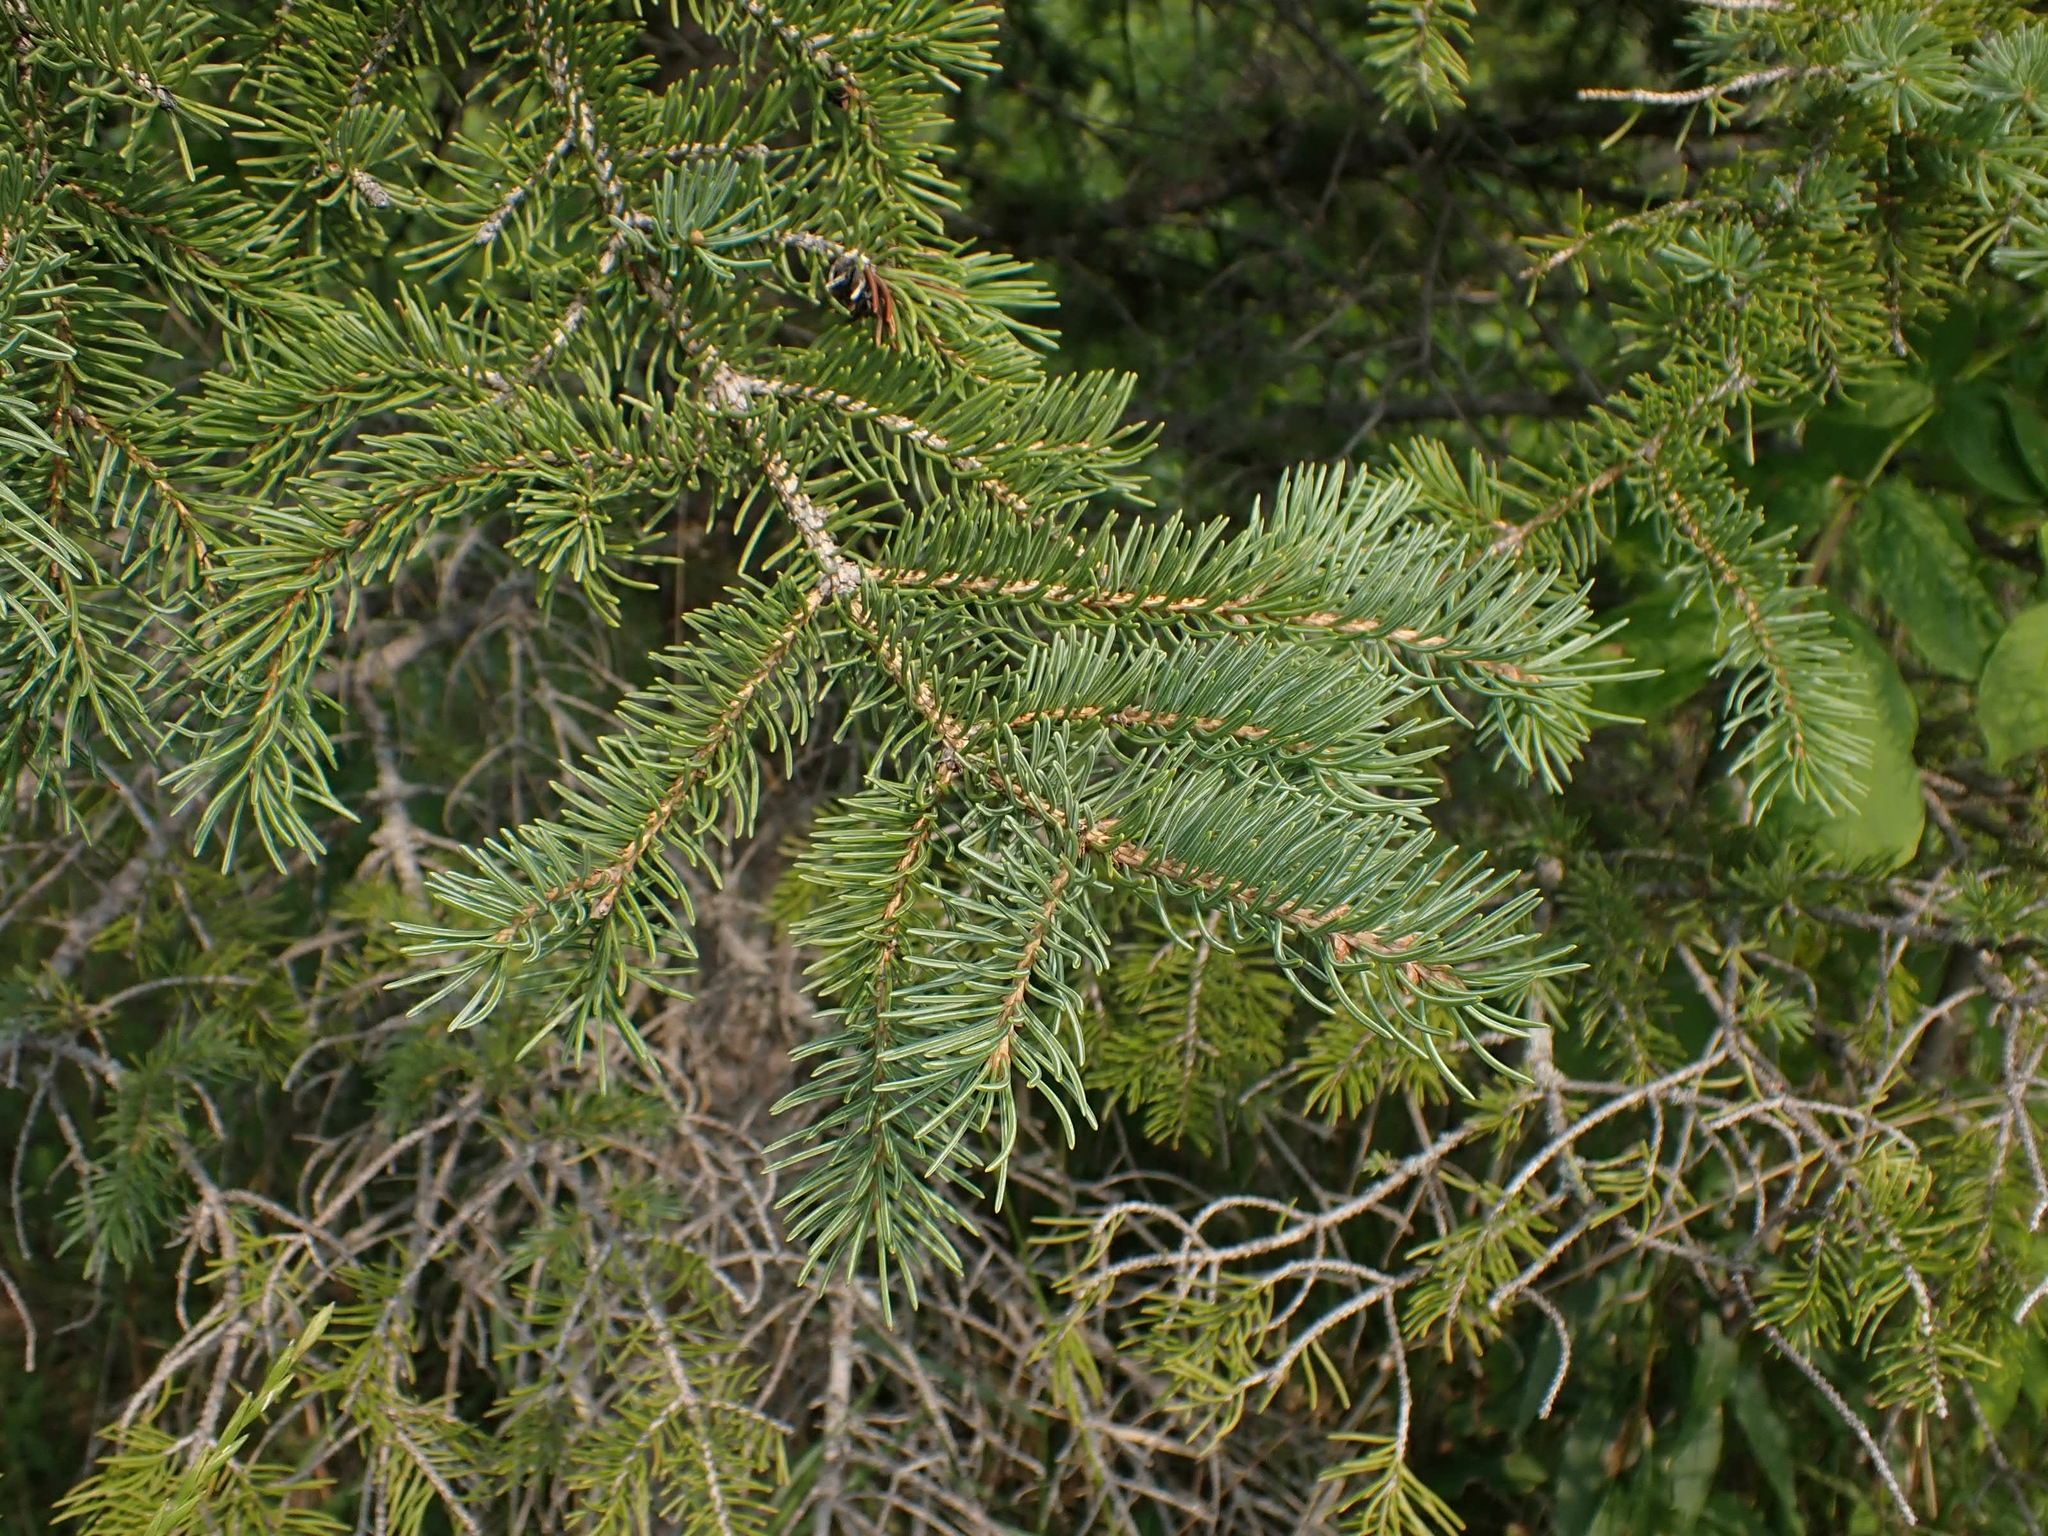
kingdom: Plantae
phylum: Tracheophyta
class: Pinopsida
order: Pinales
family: Pinaceae
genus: Picea
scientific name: Picea glauca
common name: White spruce
